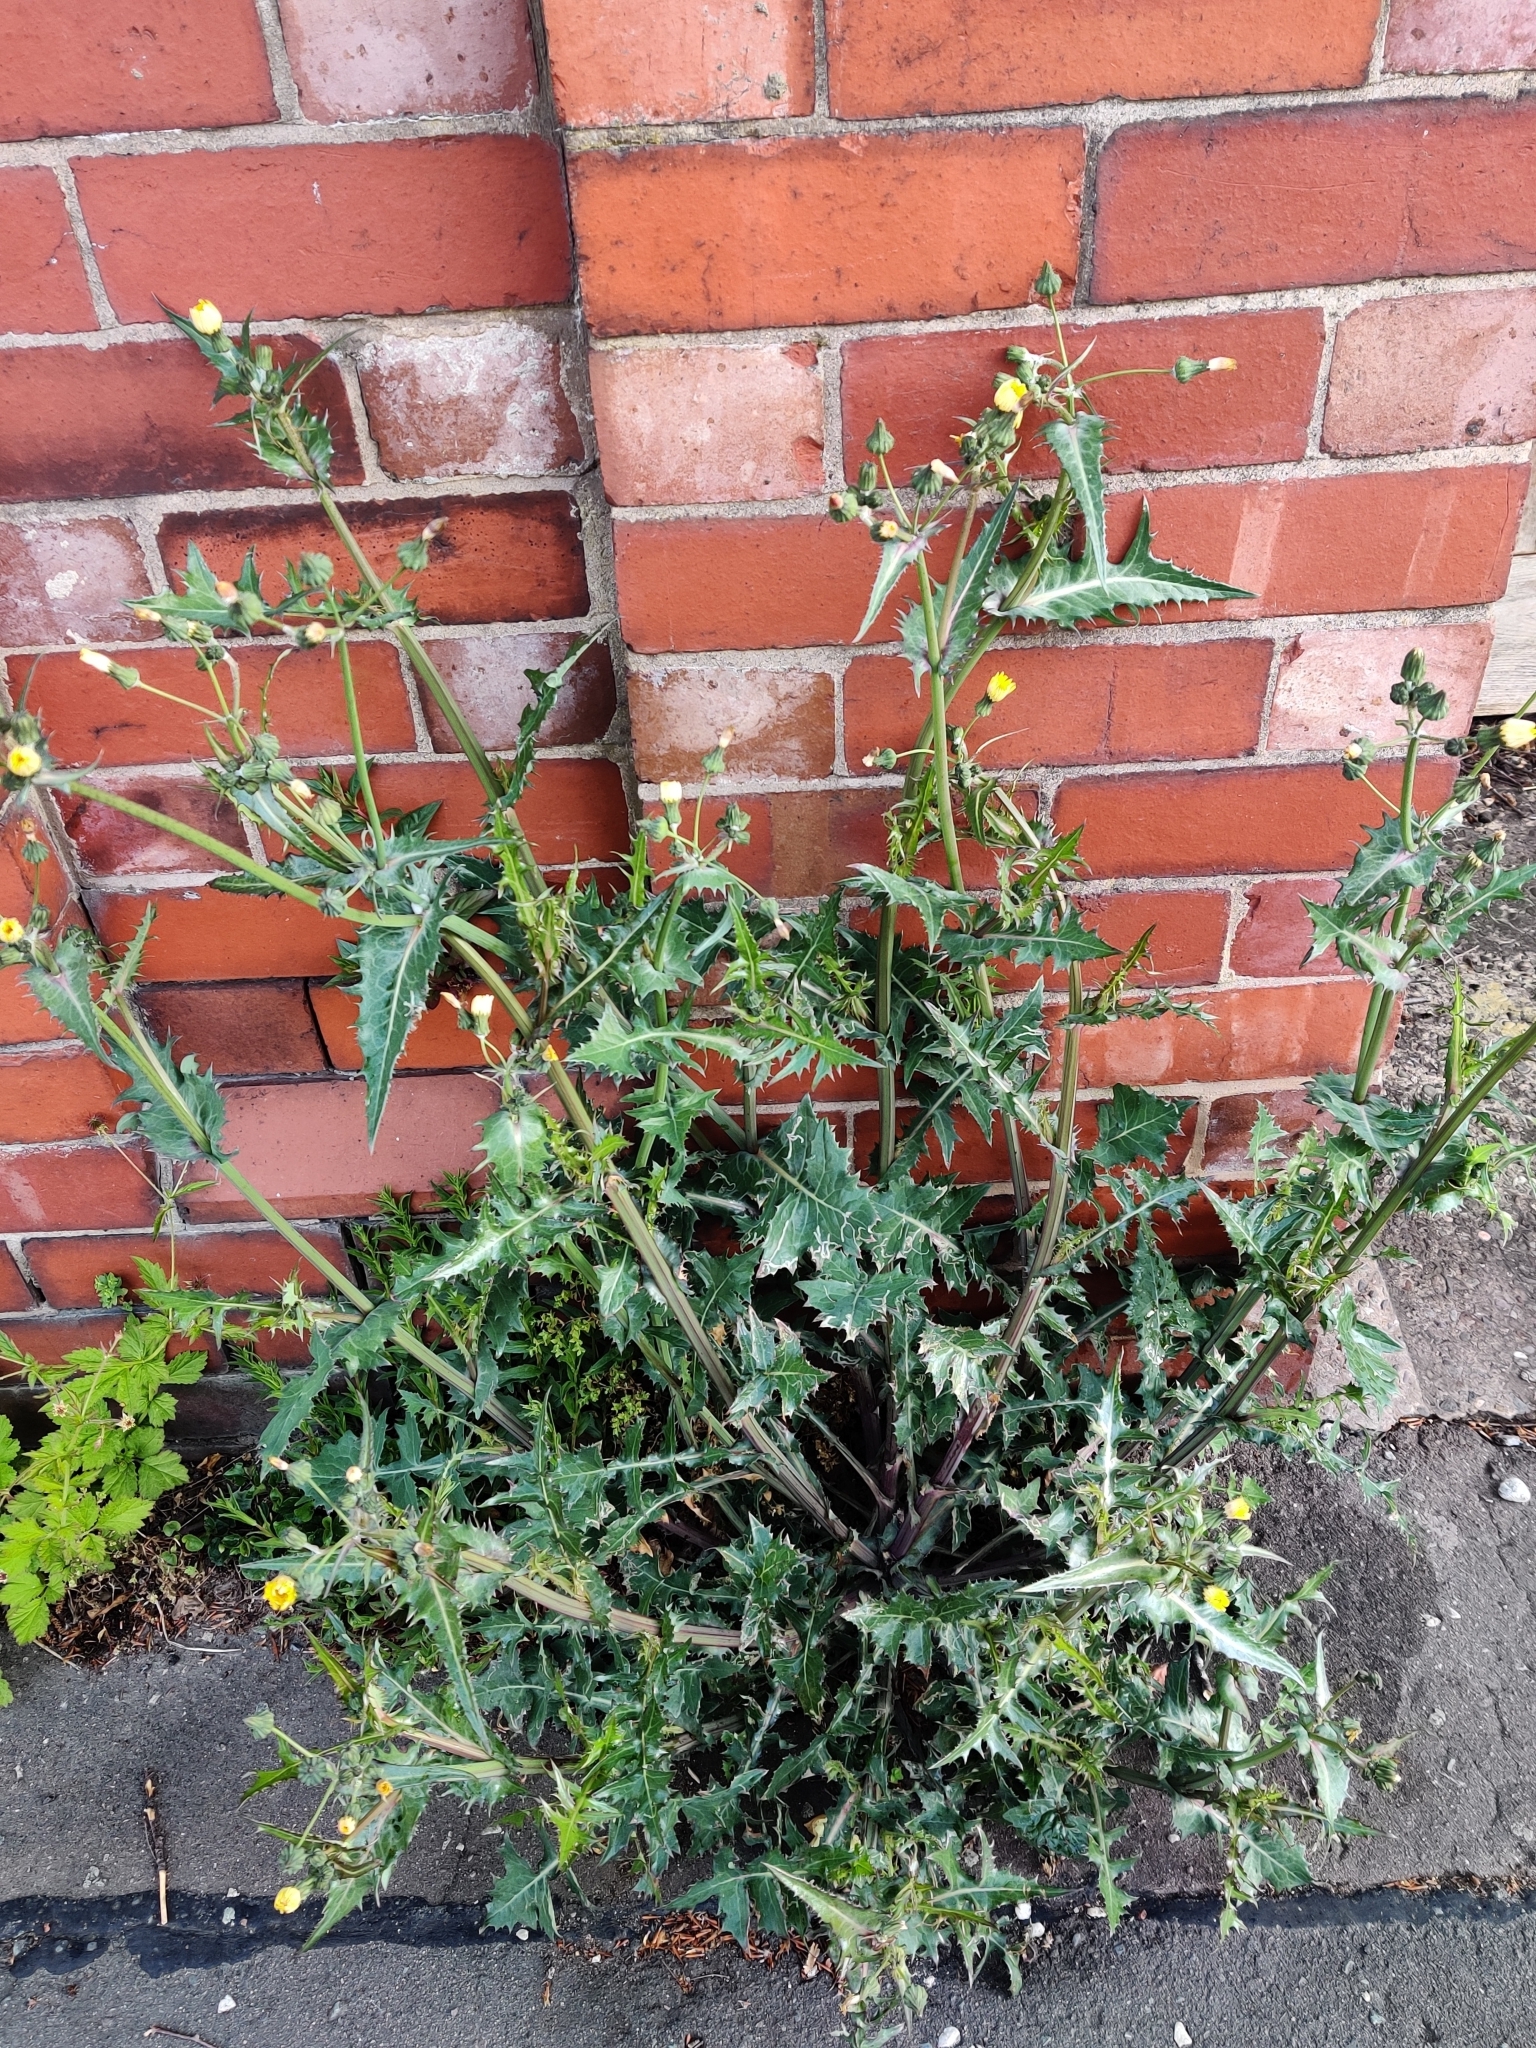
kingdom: Plantae
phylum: Tracheophyta
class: Magnoliopsida
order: Asterales
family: Asteraceae
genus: Sonchus
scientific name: Sonchus asper
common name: Prickly sow-thistle
